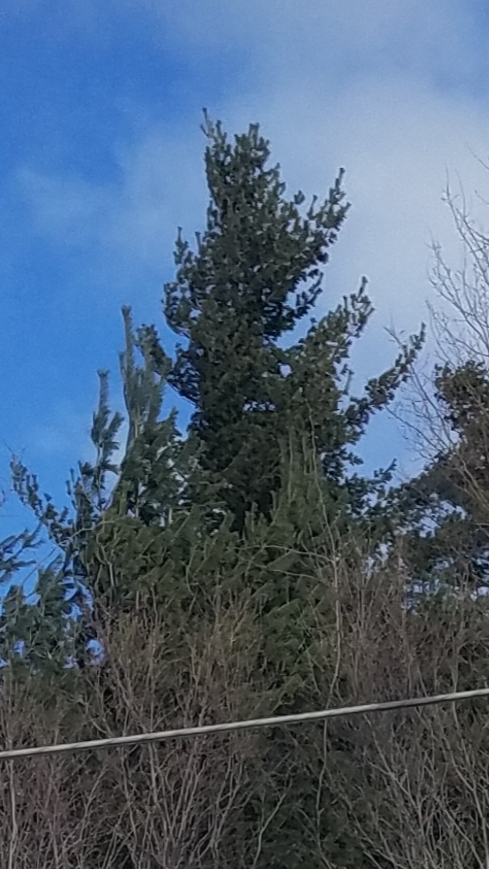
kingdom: Plantae
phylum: Tracheophyta
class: Pinopsida
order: Pinales
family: Pinaceae
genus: Pinus
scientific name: Pinus strobus
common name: Weymouth pine
